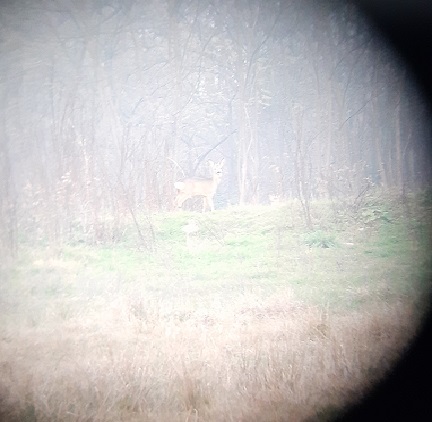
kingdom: Animalia
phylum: Chordata
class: Mammalia
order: Artiodactyla
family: Cervidae
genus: Capreolus
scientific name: Capreolus capreolus
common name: Western roe deer
